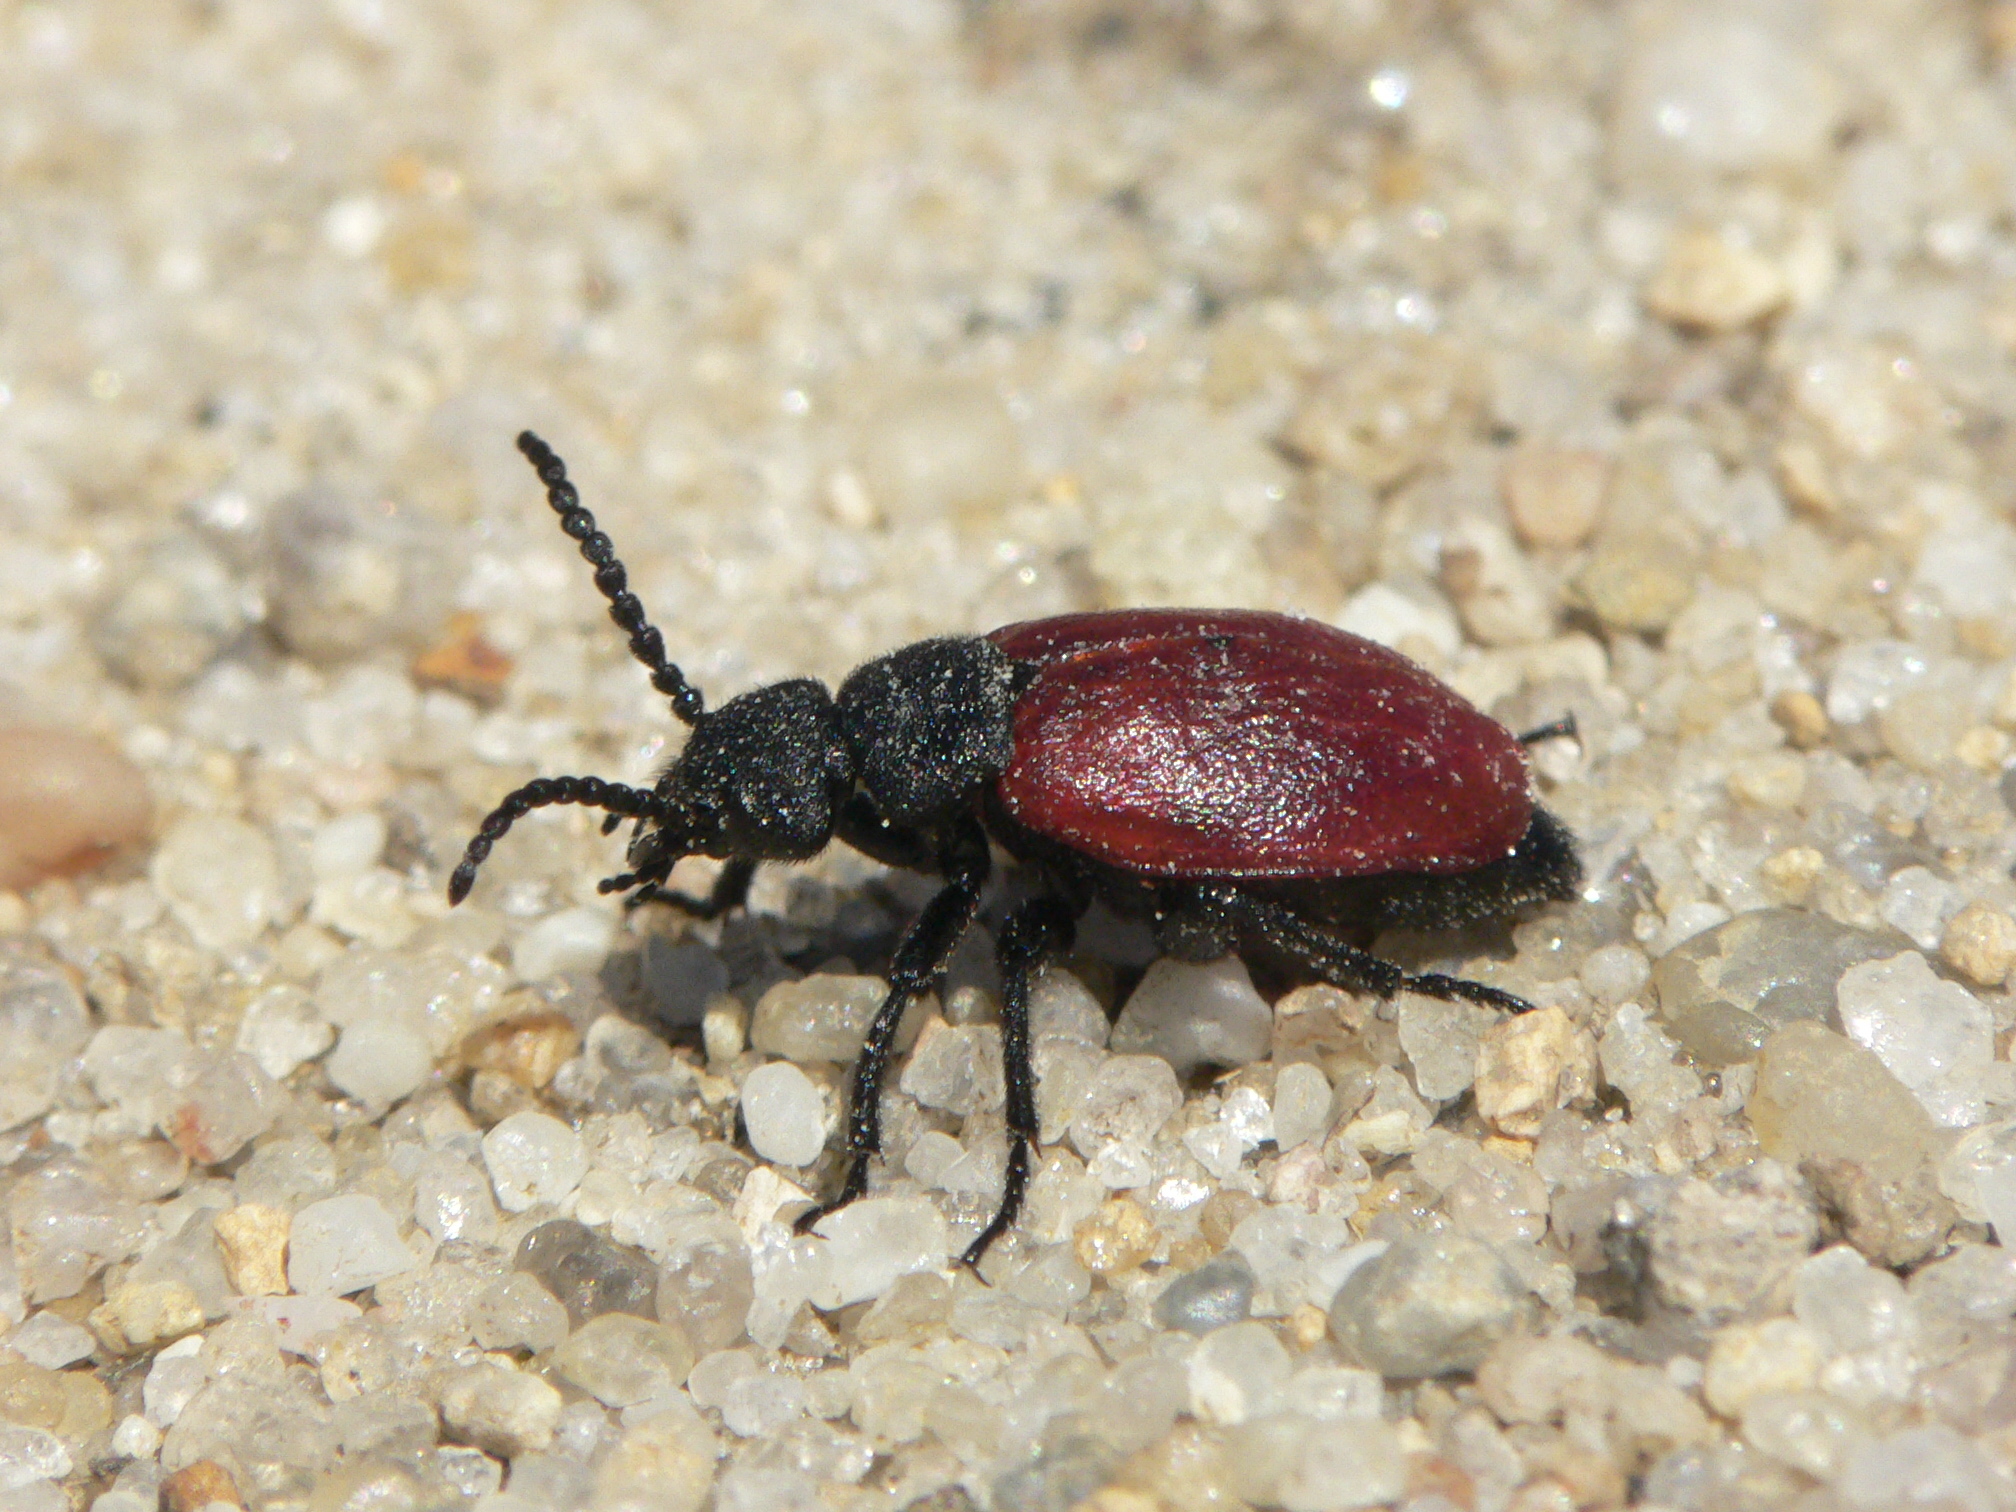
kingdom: Animalia
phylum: Arthropoda
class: Insecta
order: Coleoptera
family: Meloidae
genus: Tricrania
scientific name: Tricrania sanguinipennis
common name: Blood-winged blister beetle
